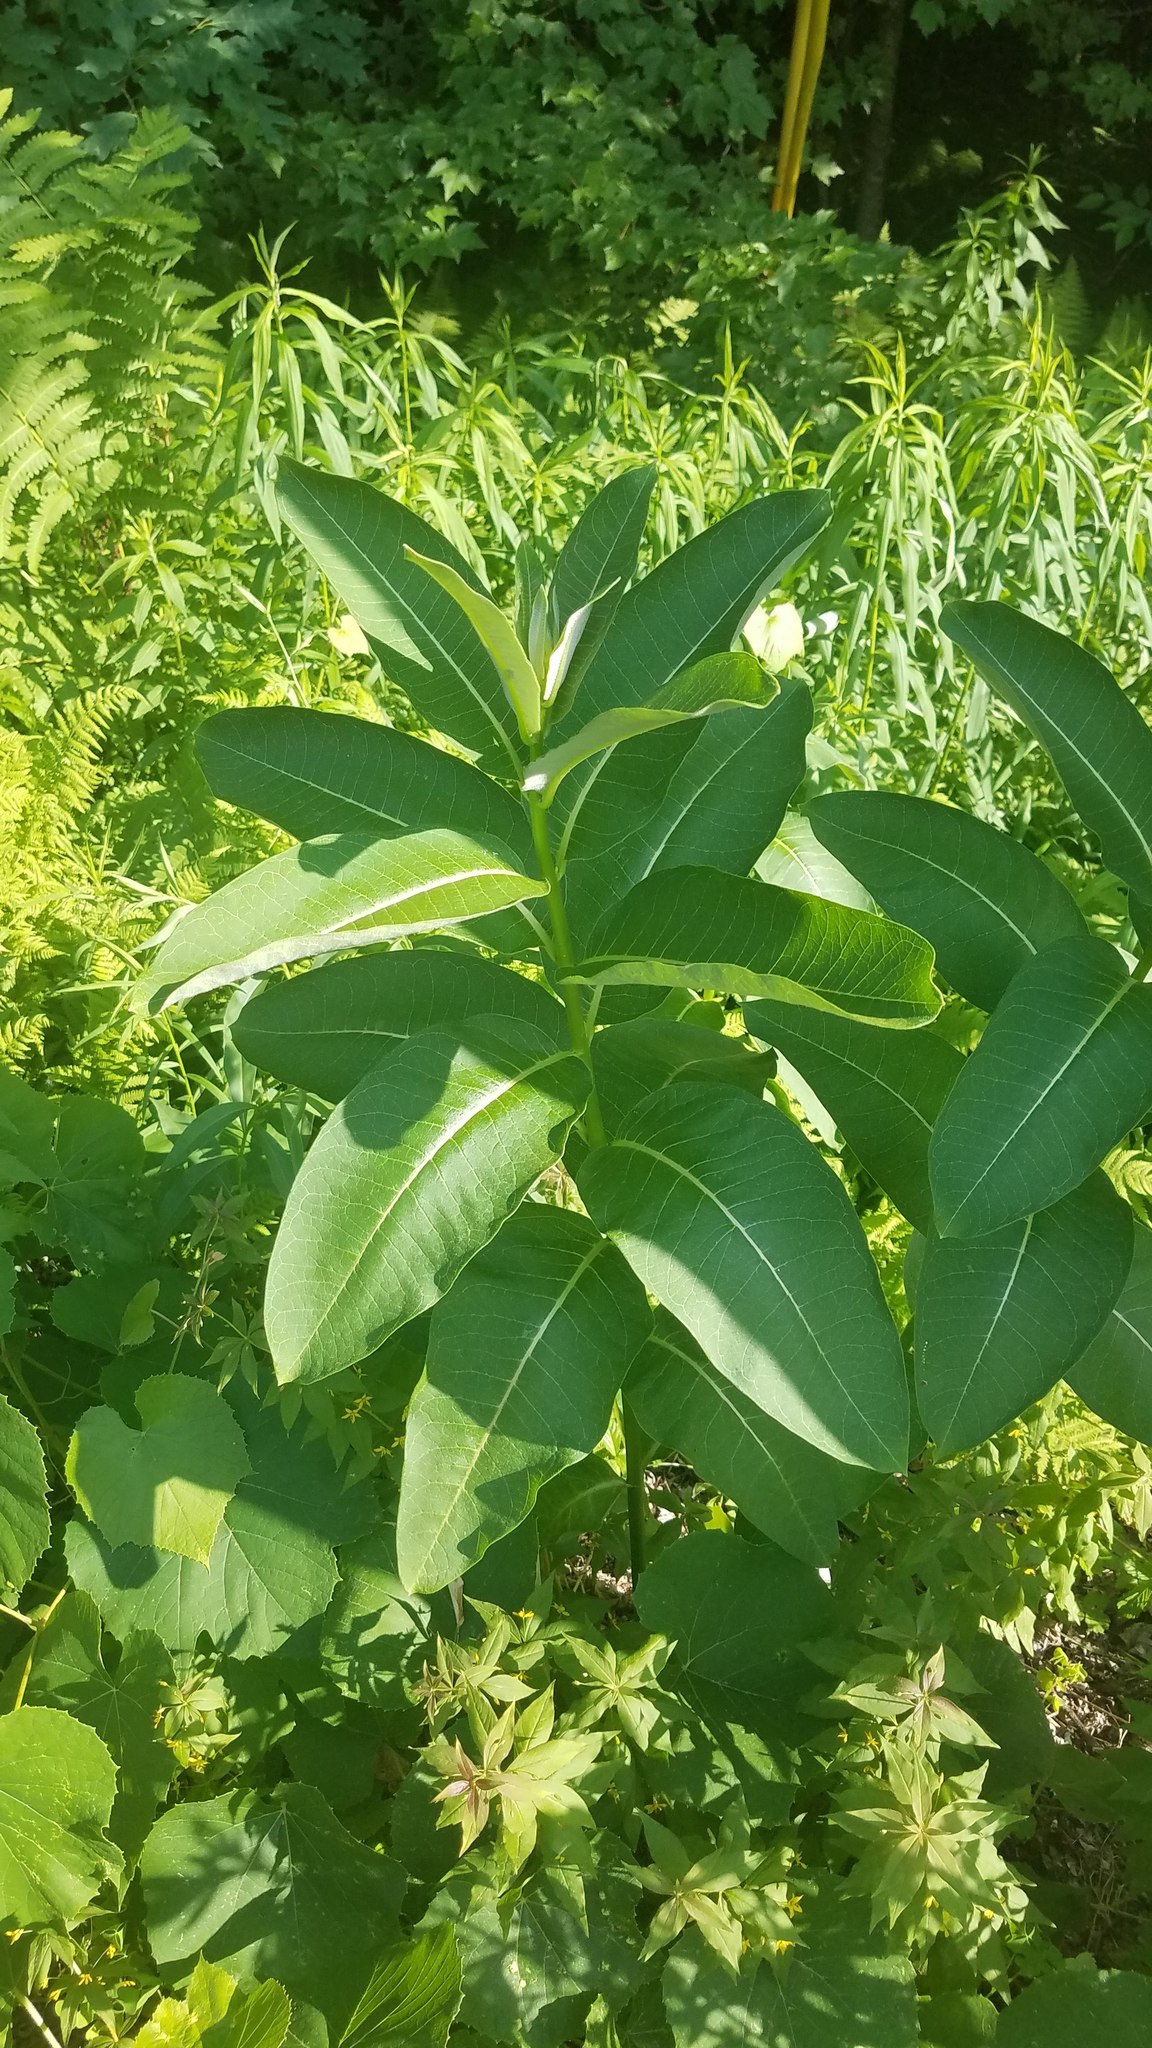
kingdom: Plantae
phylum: Tracheophyta
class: Magnoliopsida
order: Gentianales
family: Apocynaceae
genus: Asclepias
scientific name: Asclepias syriaca
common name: Common milkweed
